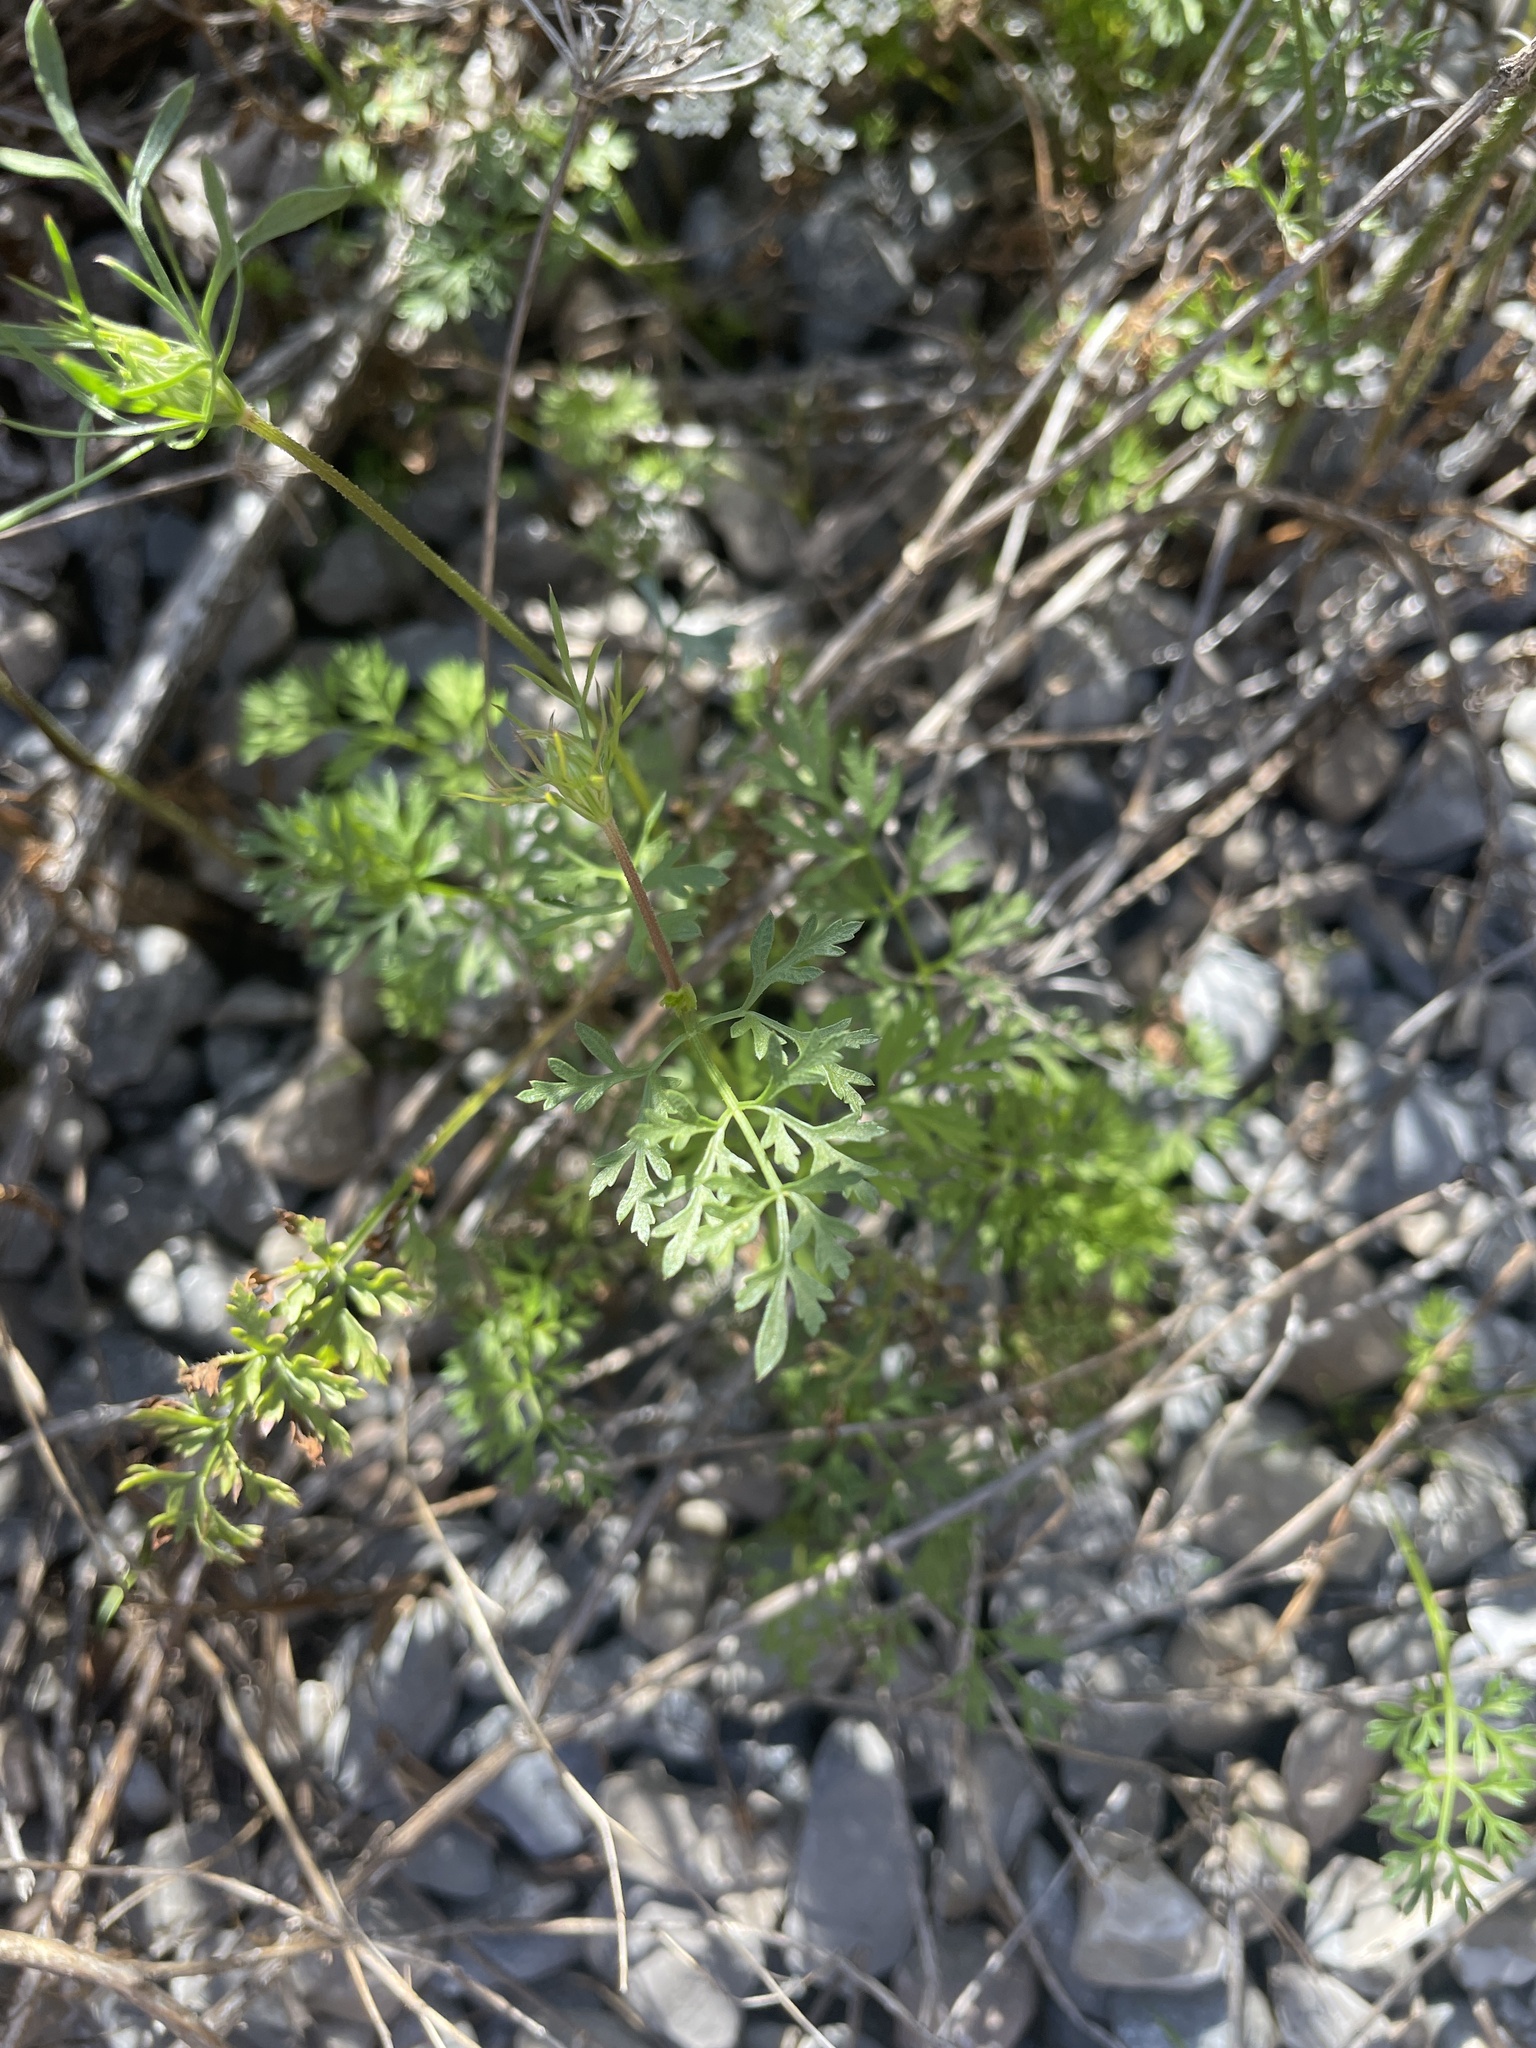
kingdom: Plantae
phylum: Tracheophyta
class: Magnoliopsida
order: Apiales
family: Apiaceae
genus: Daucus
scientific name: Daucus carota
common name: Wild carrot
